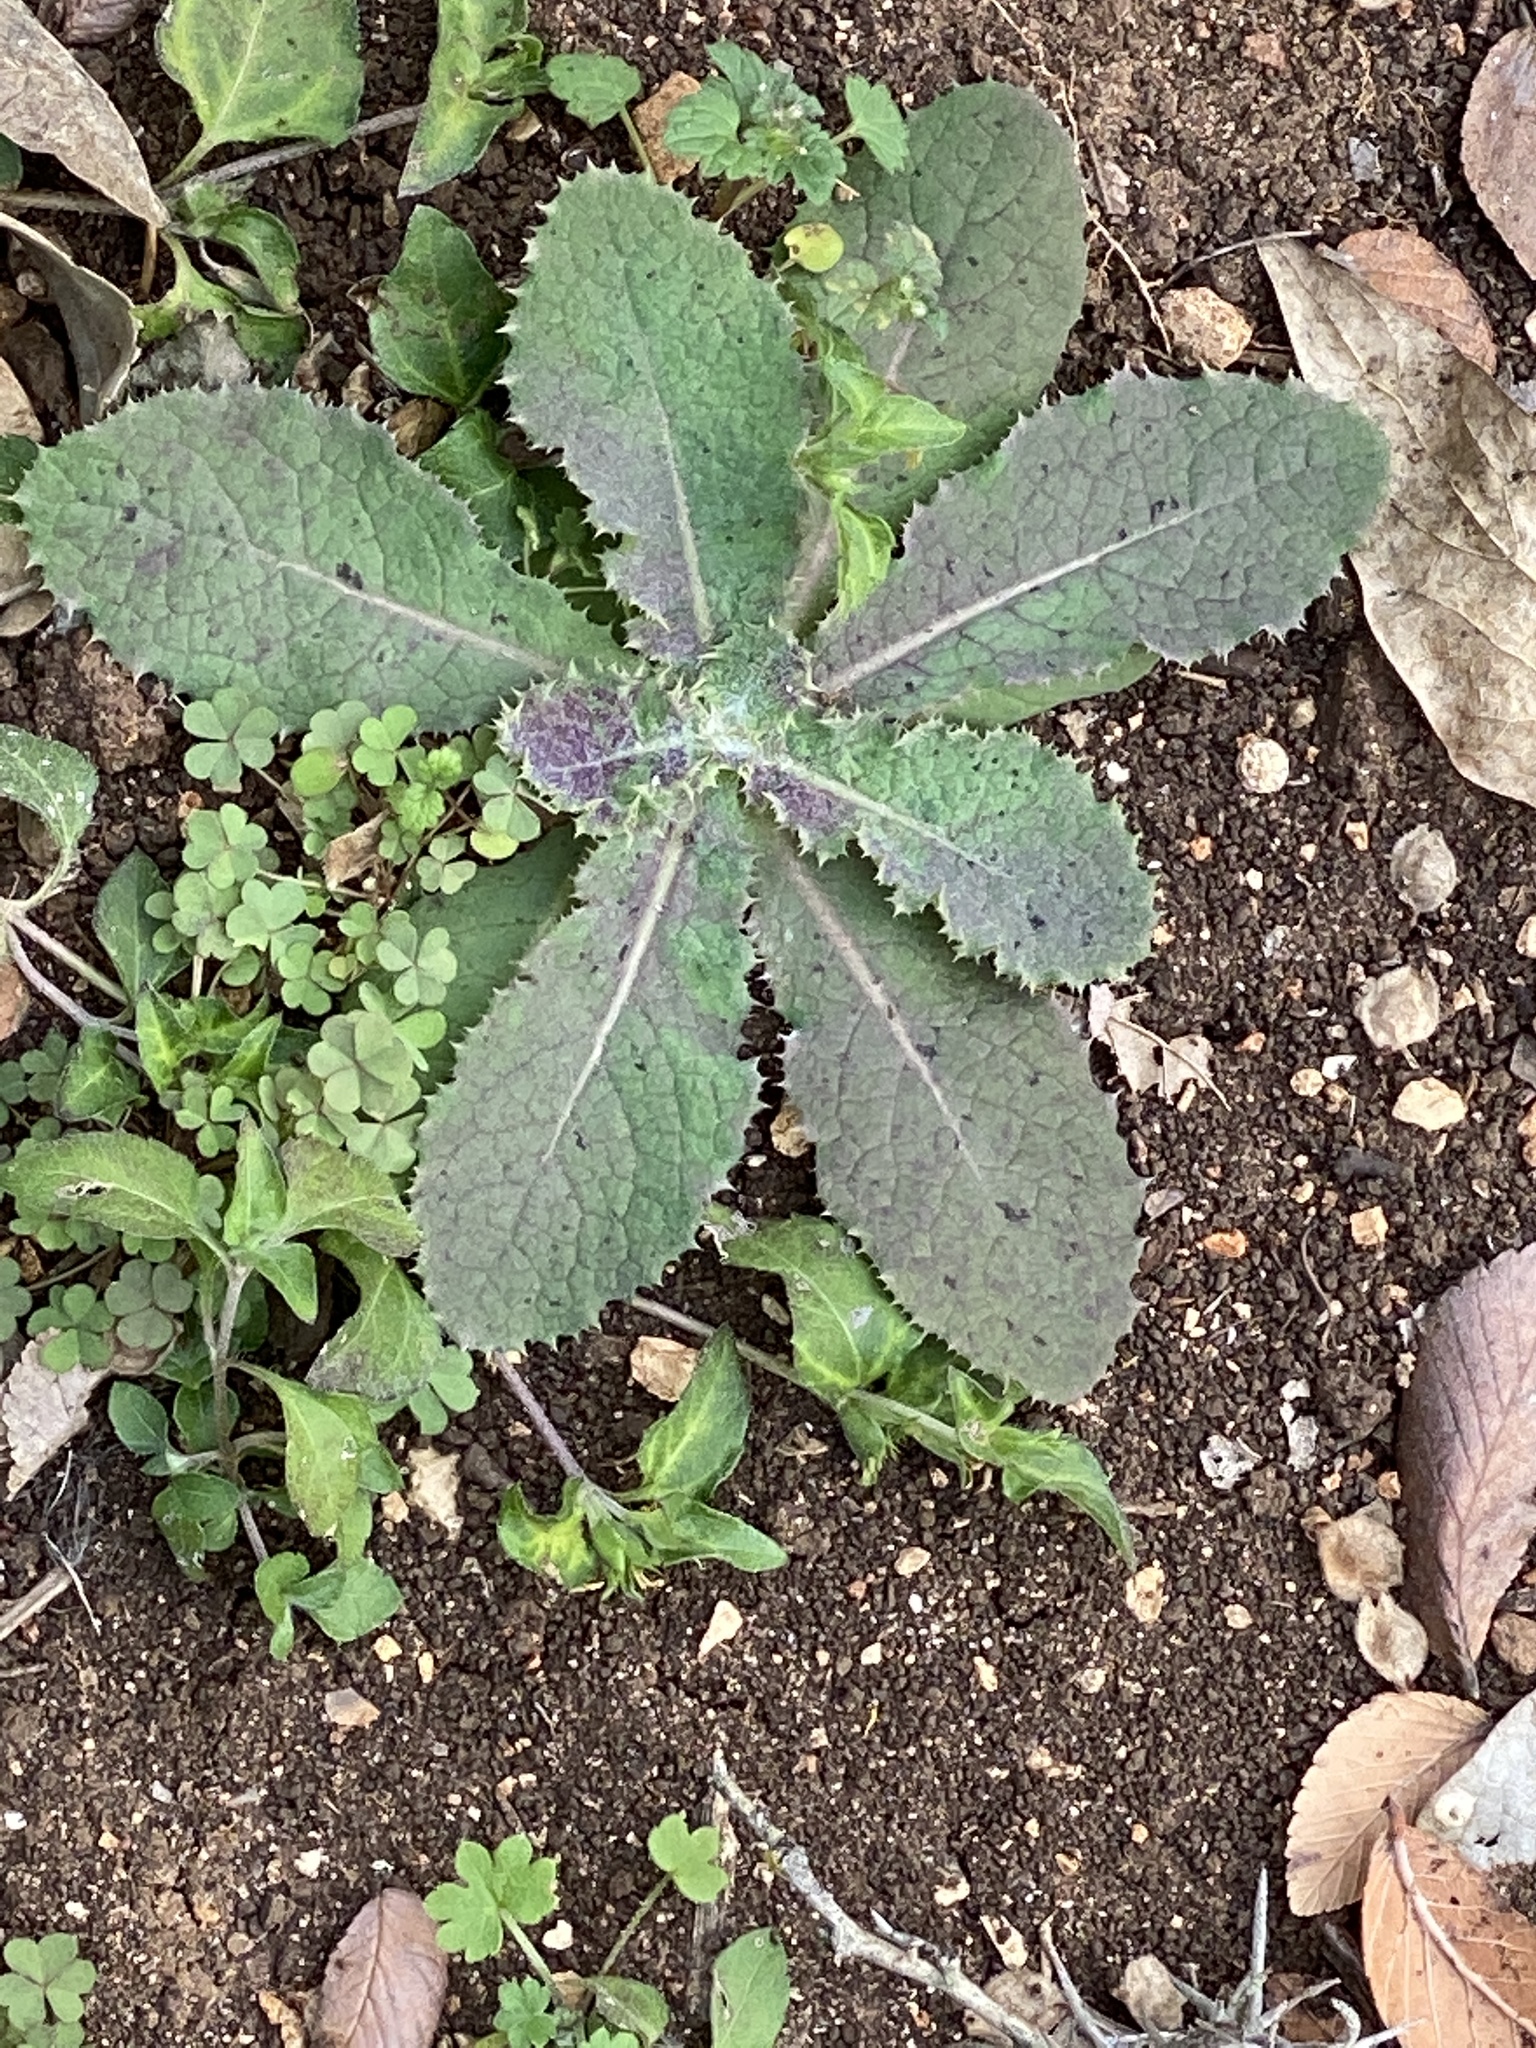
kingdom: Plantae
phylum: Tracheophyta
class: Magnoliopsida
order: Asterales
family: Asteraceae
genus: Sonchus
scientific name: Sonchus asper
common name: Prickly sow-thistle
